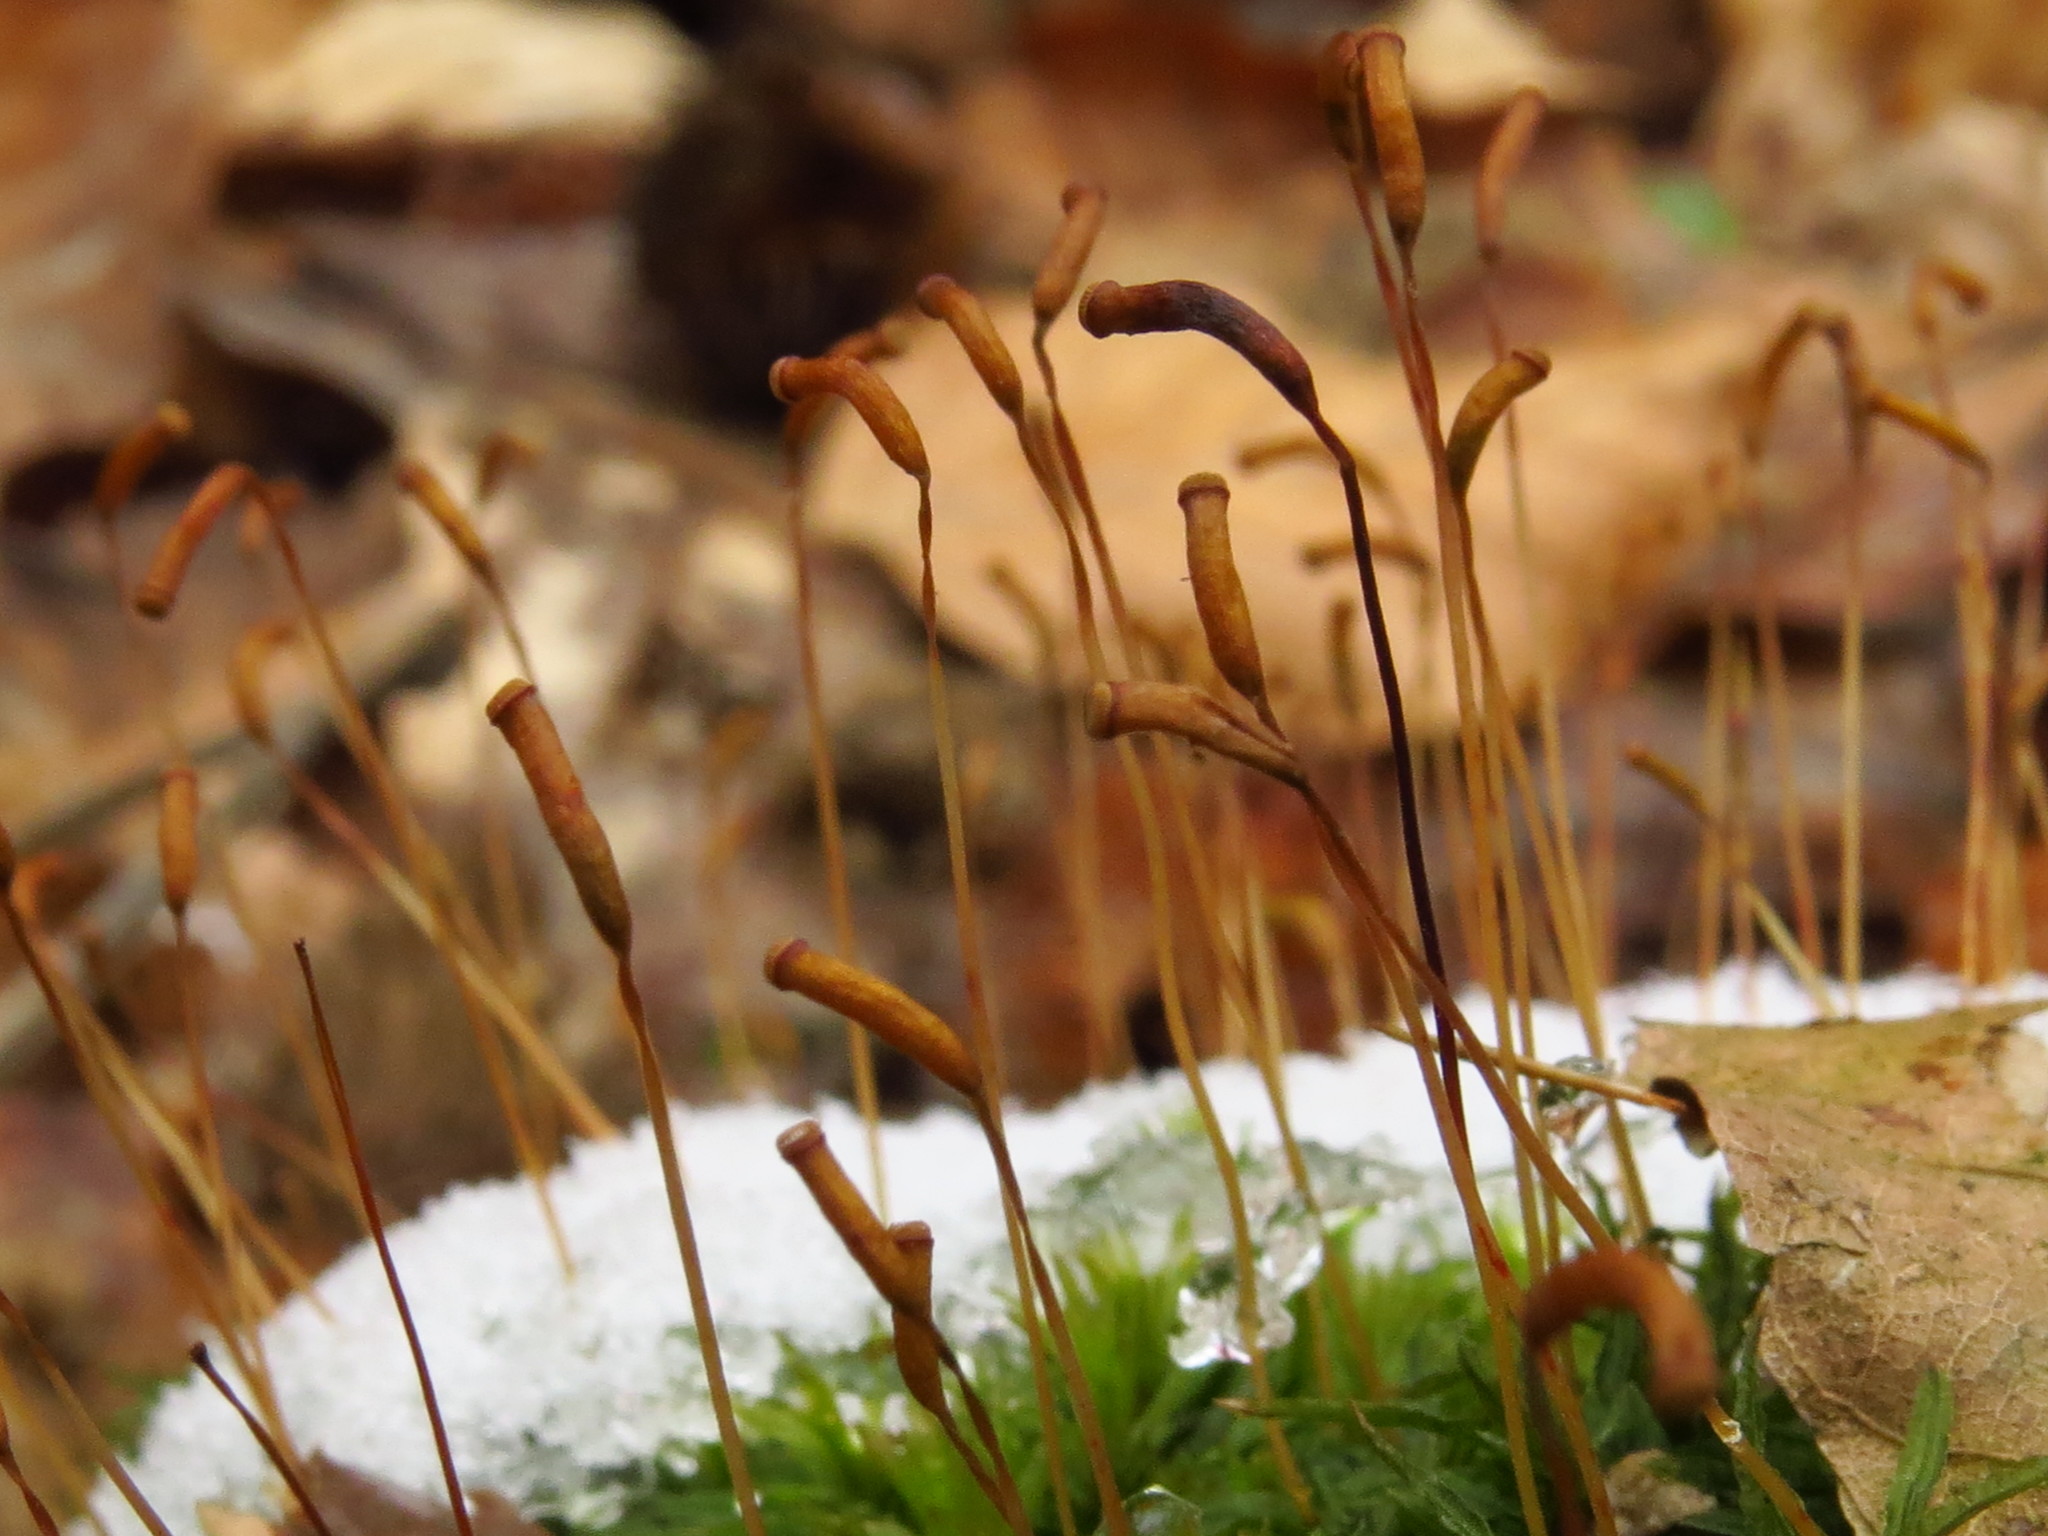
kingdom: Plantae
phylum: Bryophyta
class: Polytrichopsida
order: Polytrichales
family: Polytrichaceae
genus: Atrichum
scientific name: Atrichum undulatum
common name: Common smoothcap
